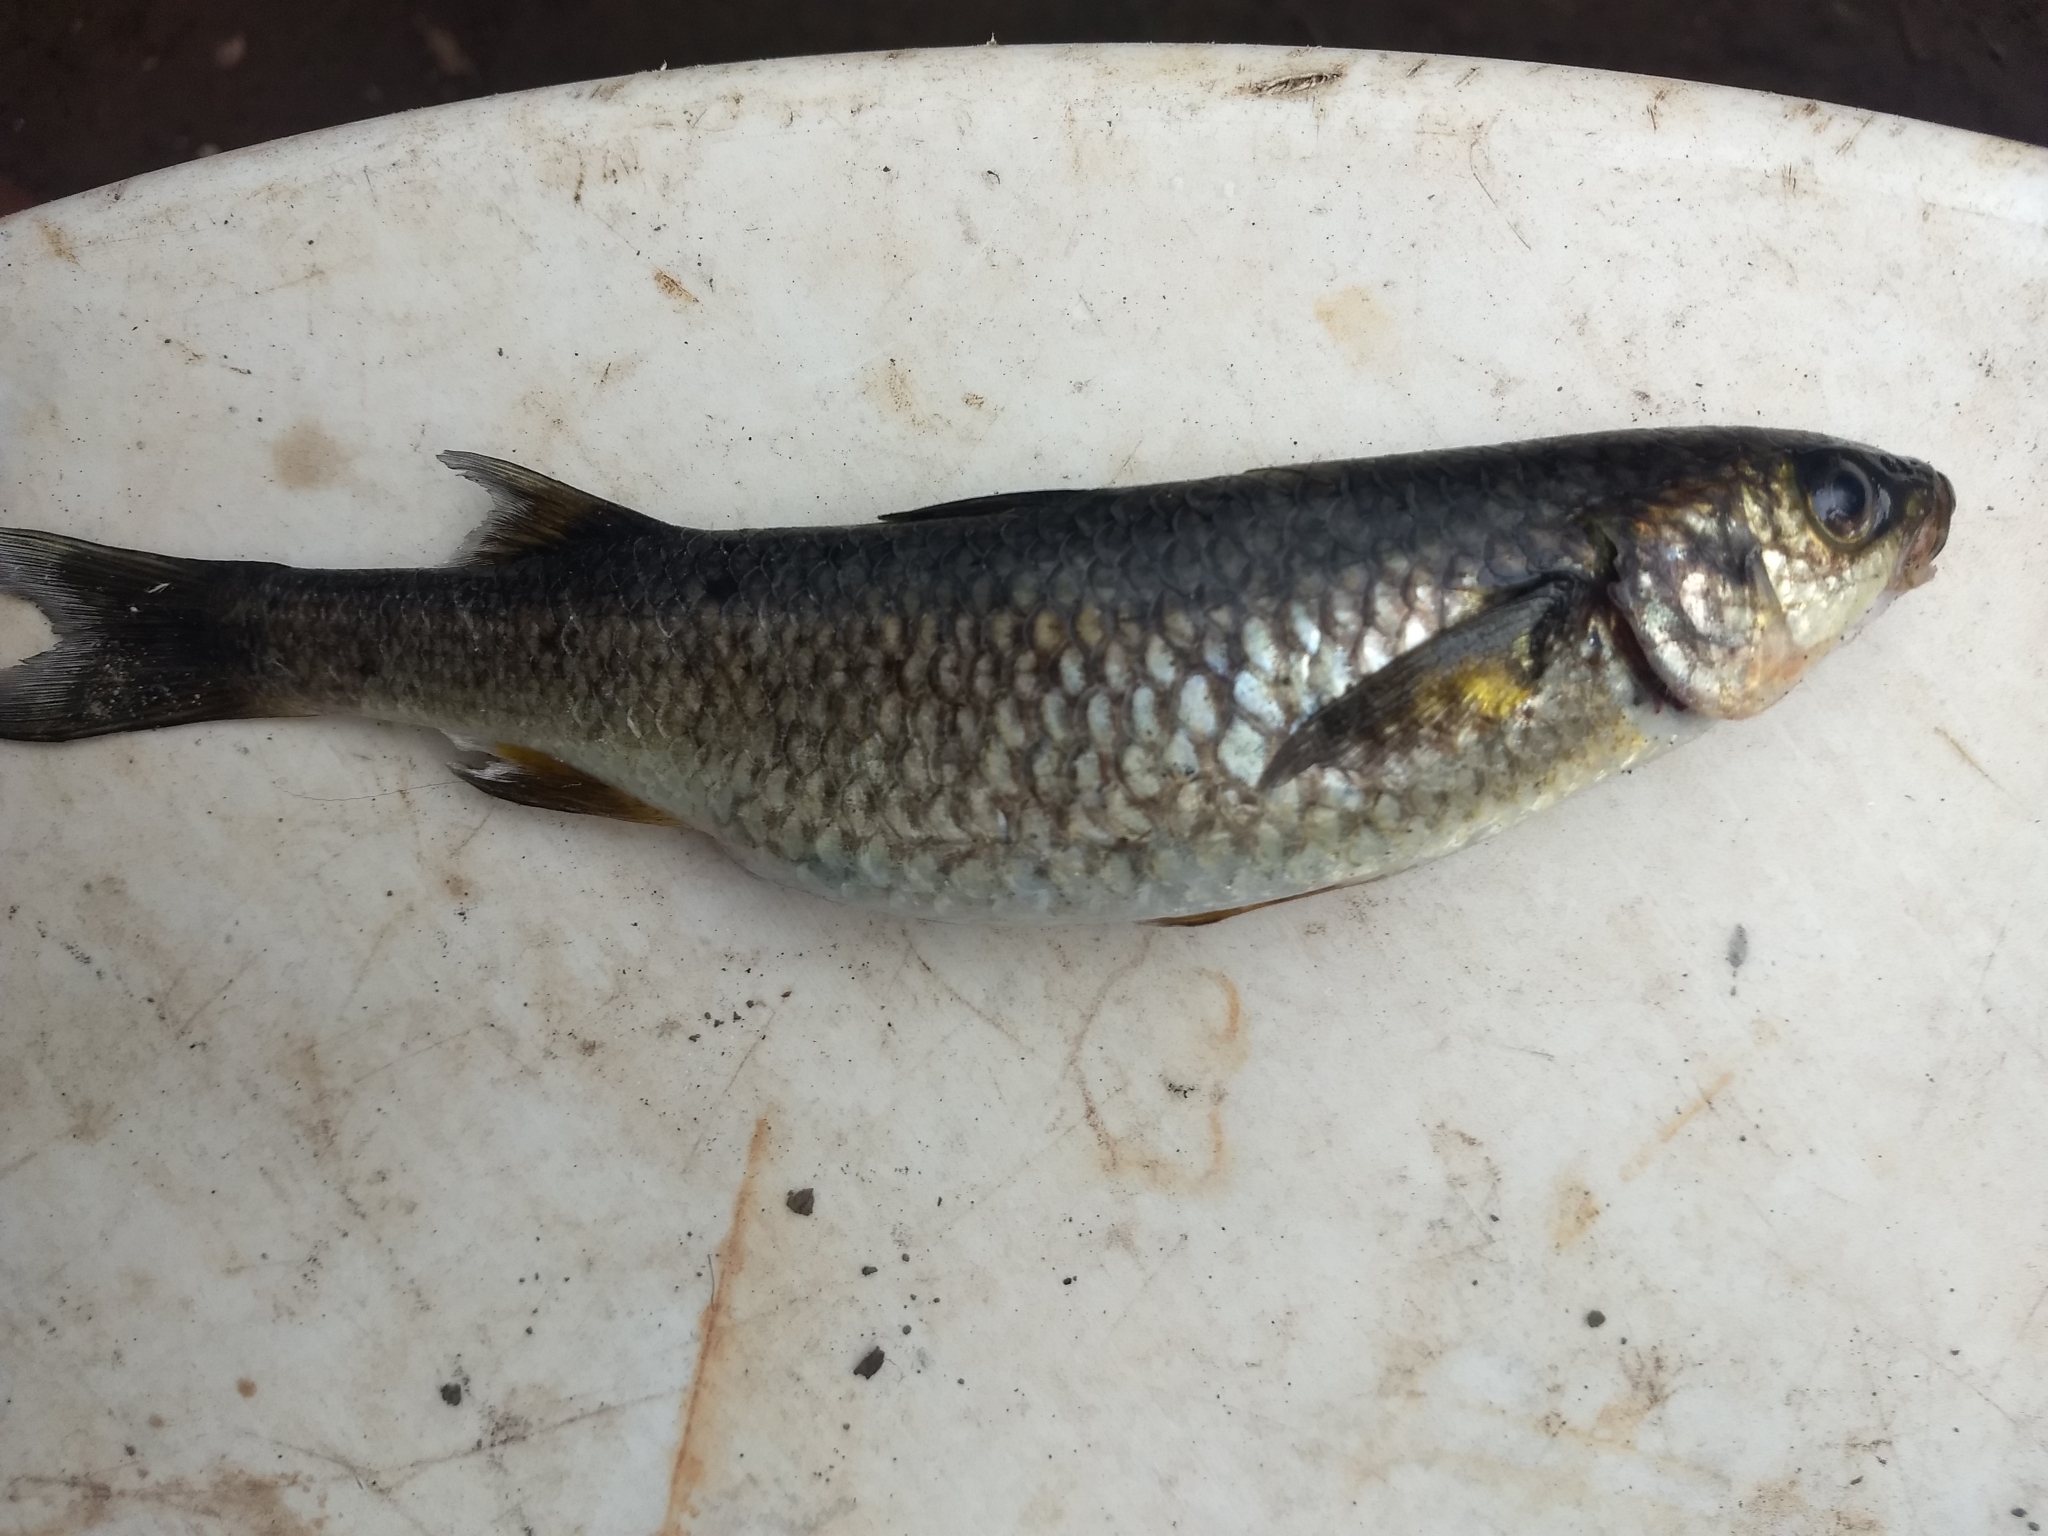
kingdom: Animalia
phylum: Chordata
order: Mugiliformes
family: Mugilidae
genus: Dajaus
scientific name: Dajaus monticola
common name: Mountain mullet
